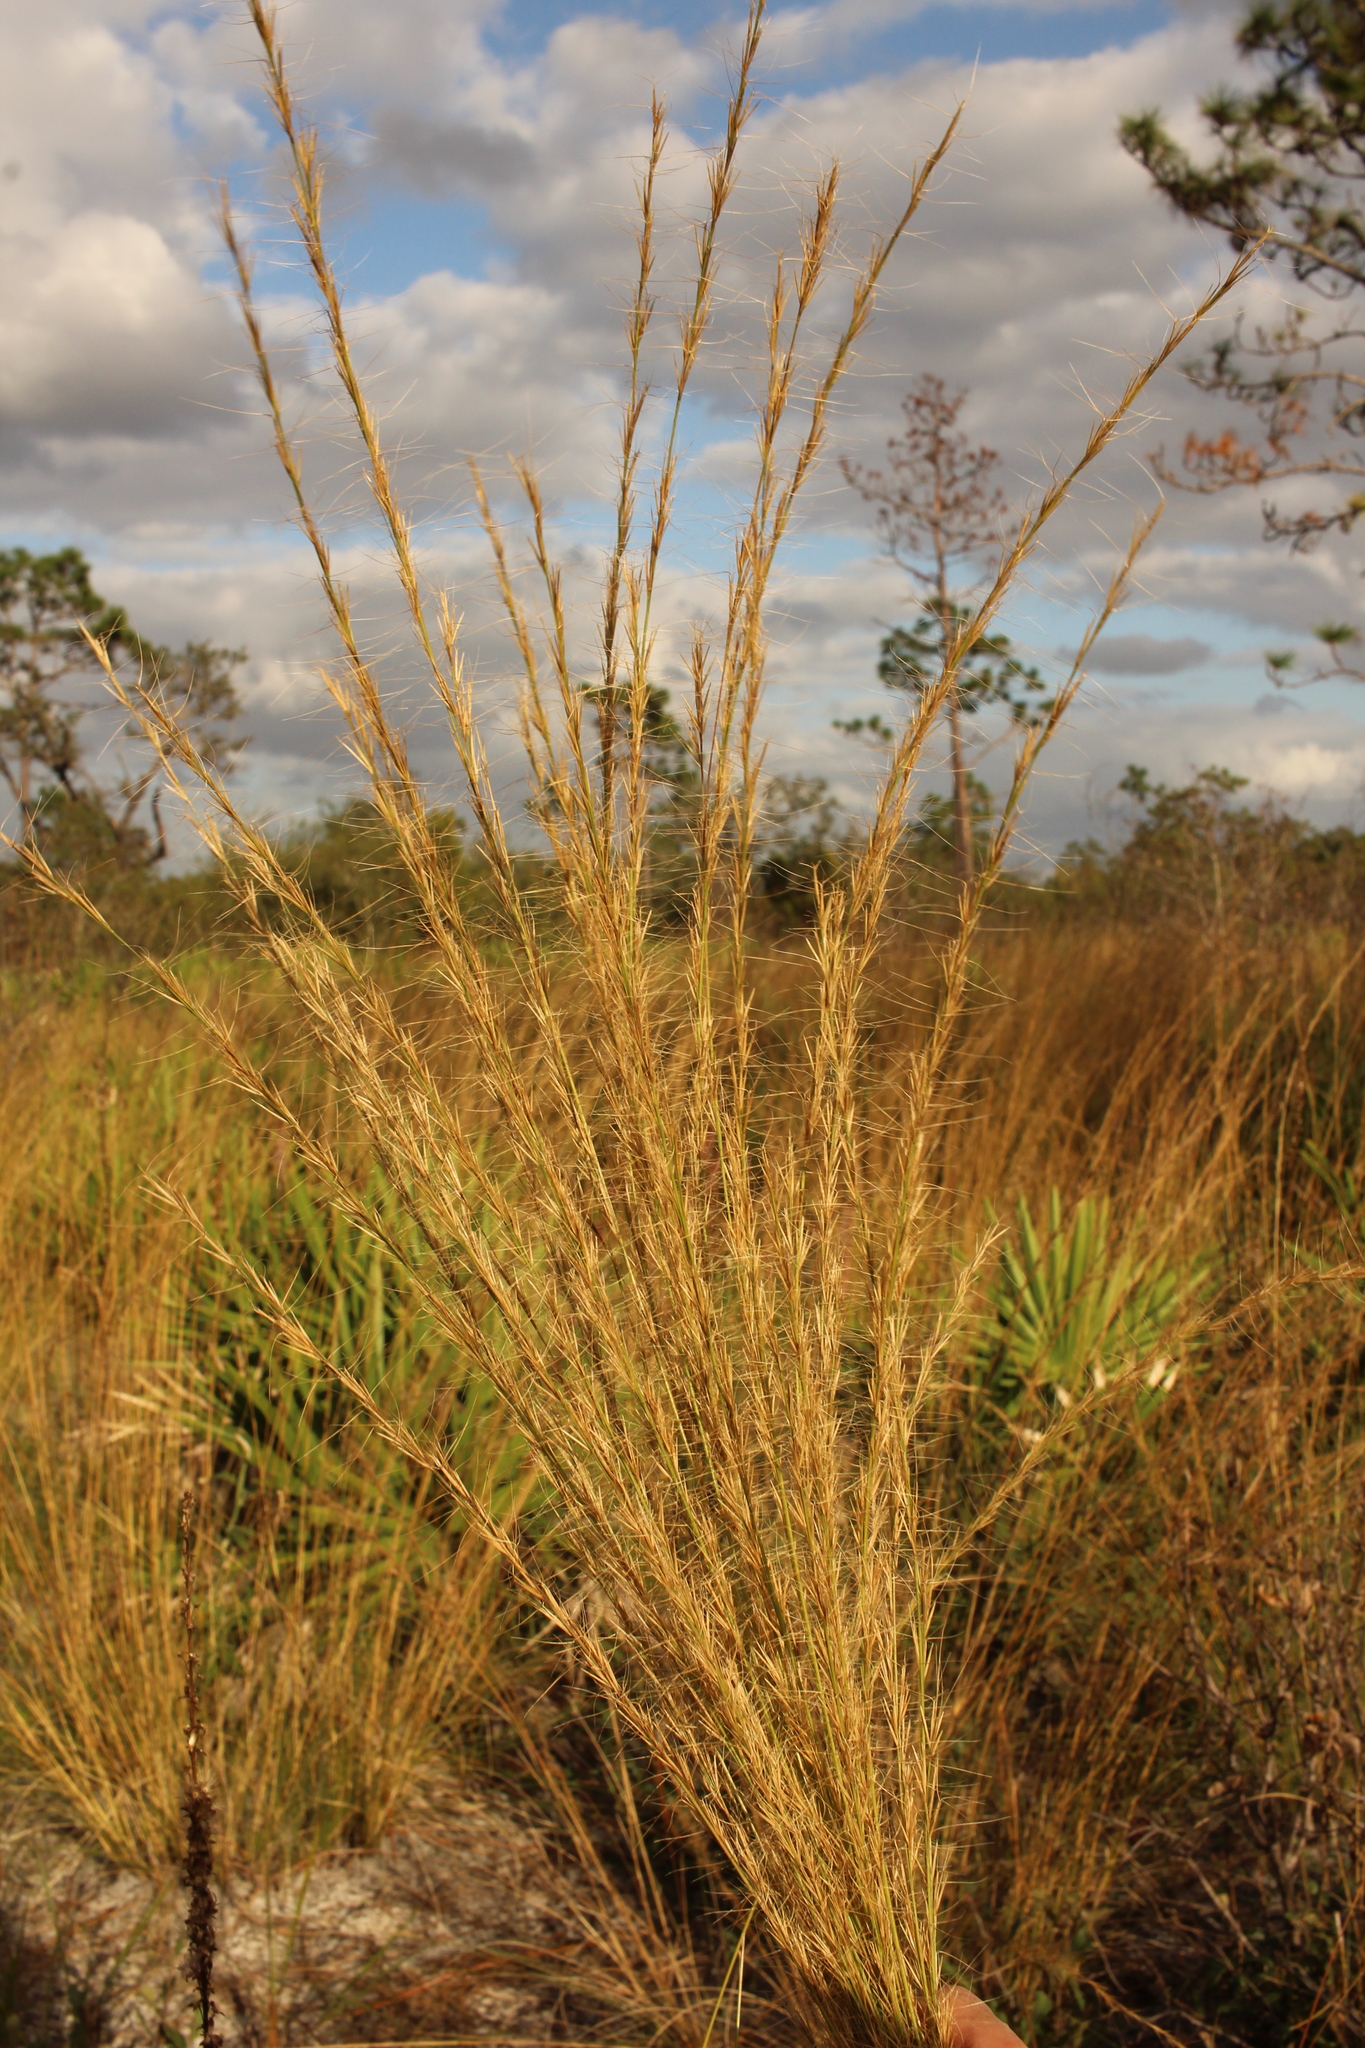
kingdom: Plantae
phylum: Tracheophyta
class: Liliopsida
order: Poales
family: Poaceae
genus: Aristida
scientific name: Aristida beyrichiana
